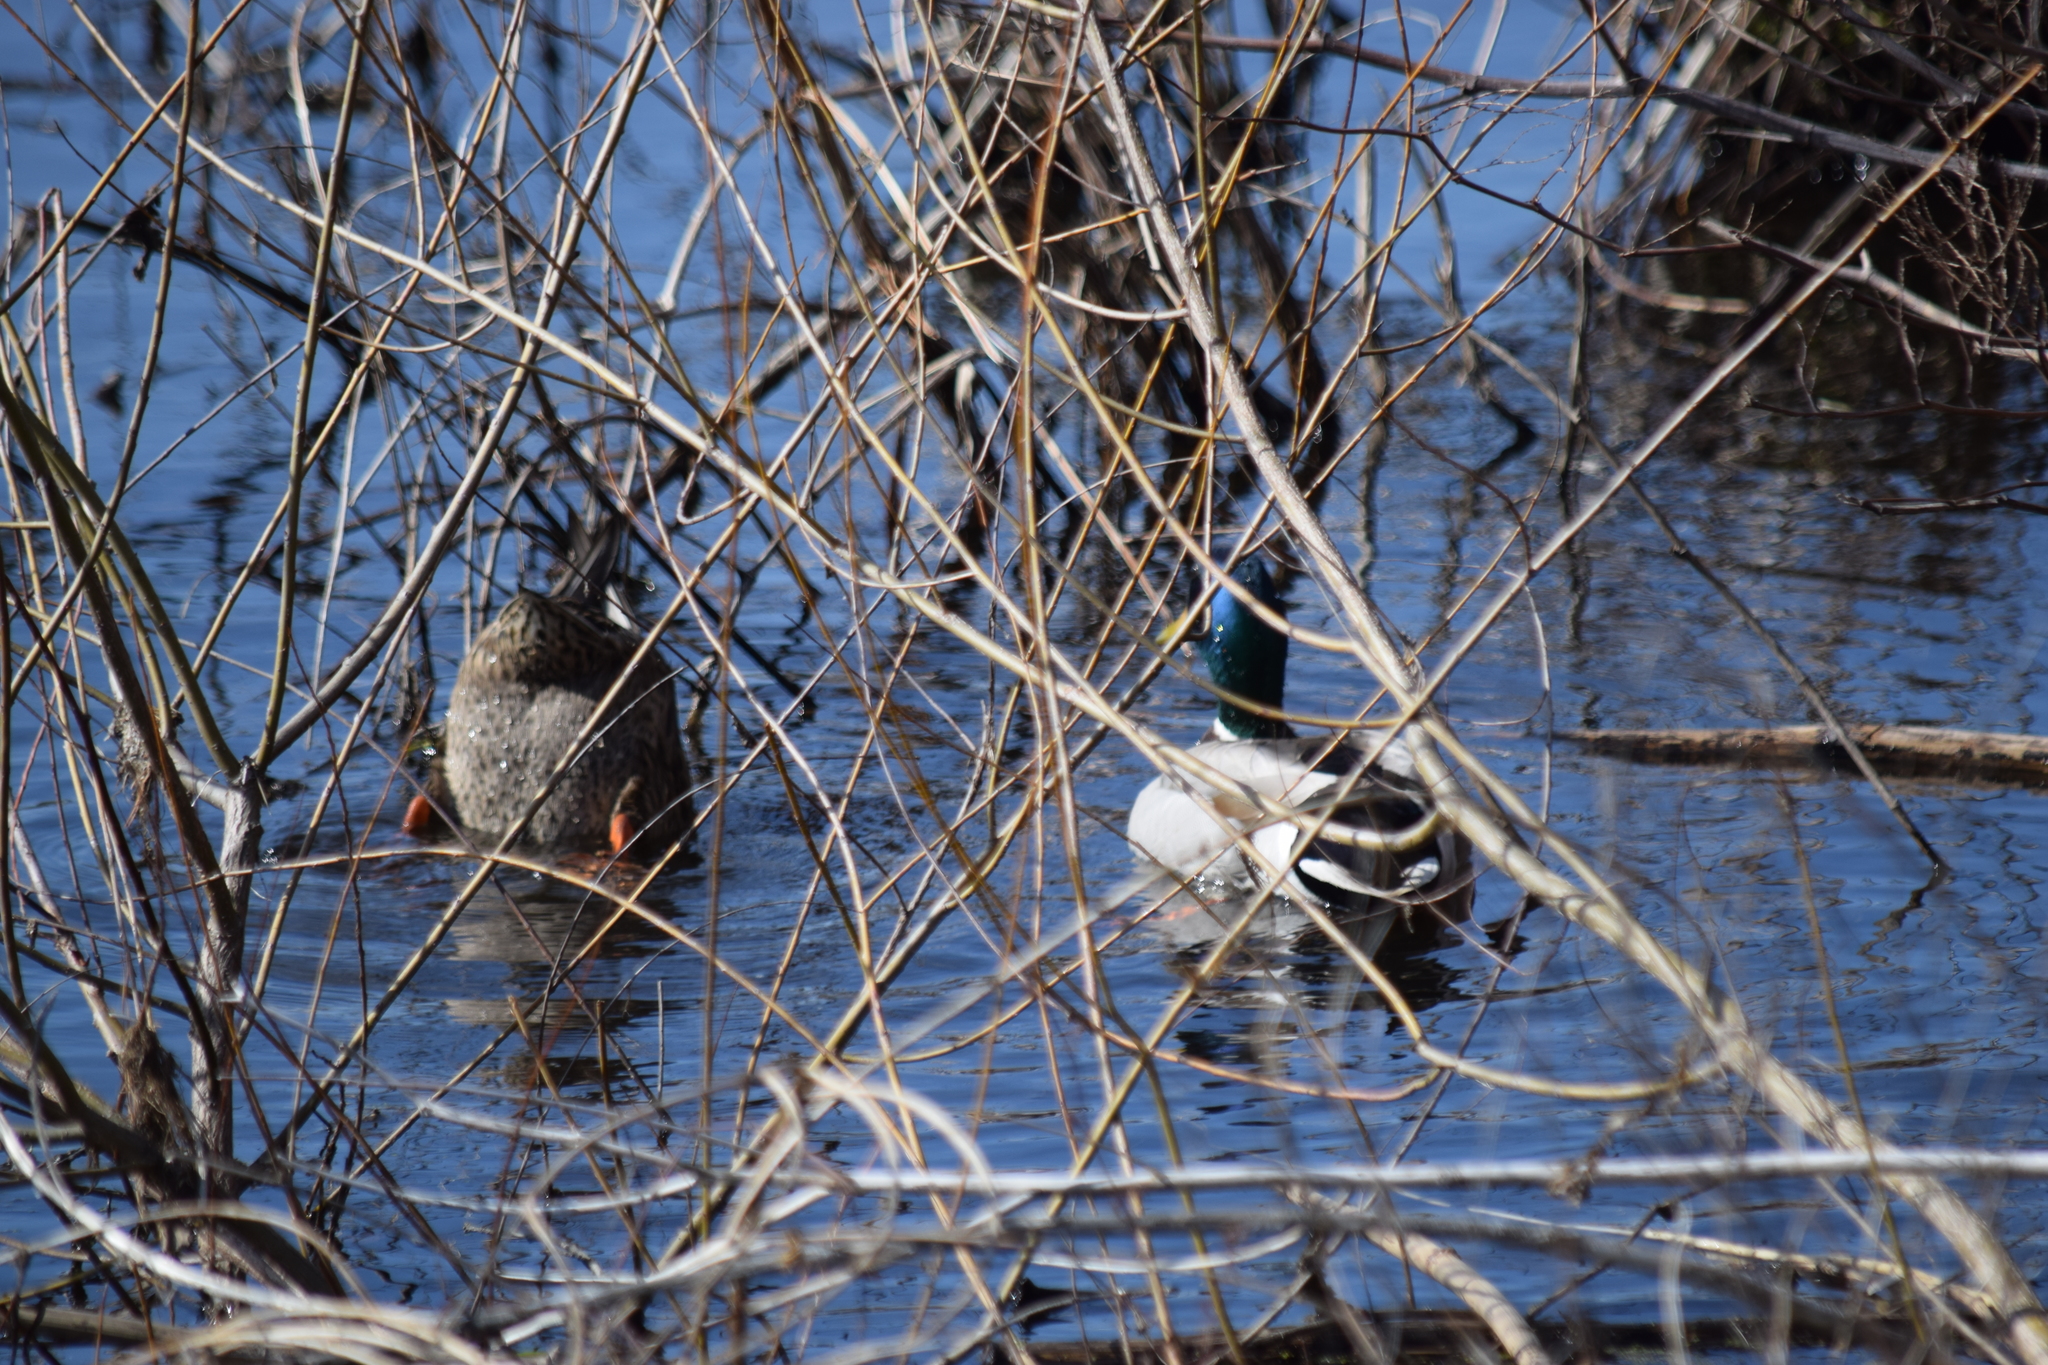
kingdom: Animalia
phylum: Chordata
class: Aves
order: Anseriformes
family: Anatidae
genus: Anas
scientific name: Anas platyrhynchos
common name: Mallard
